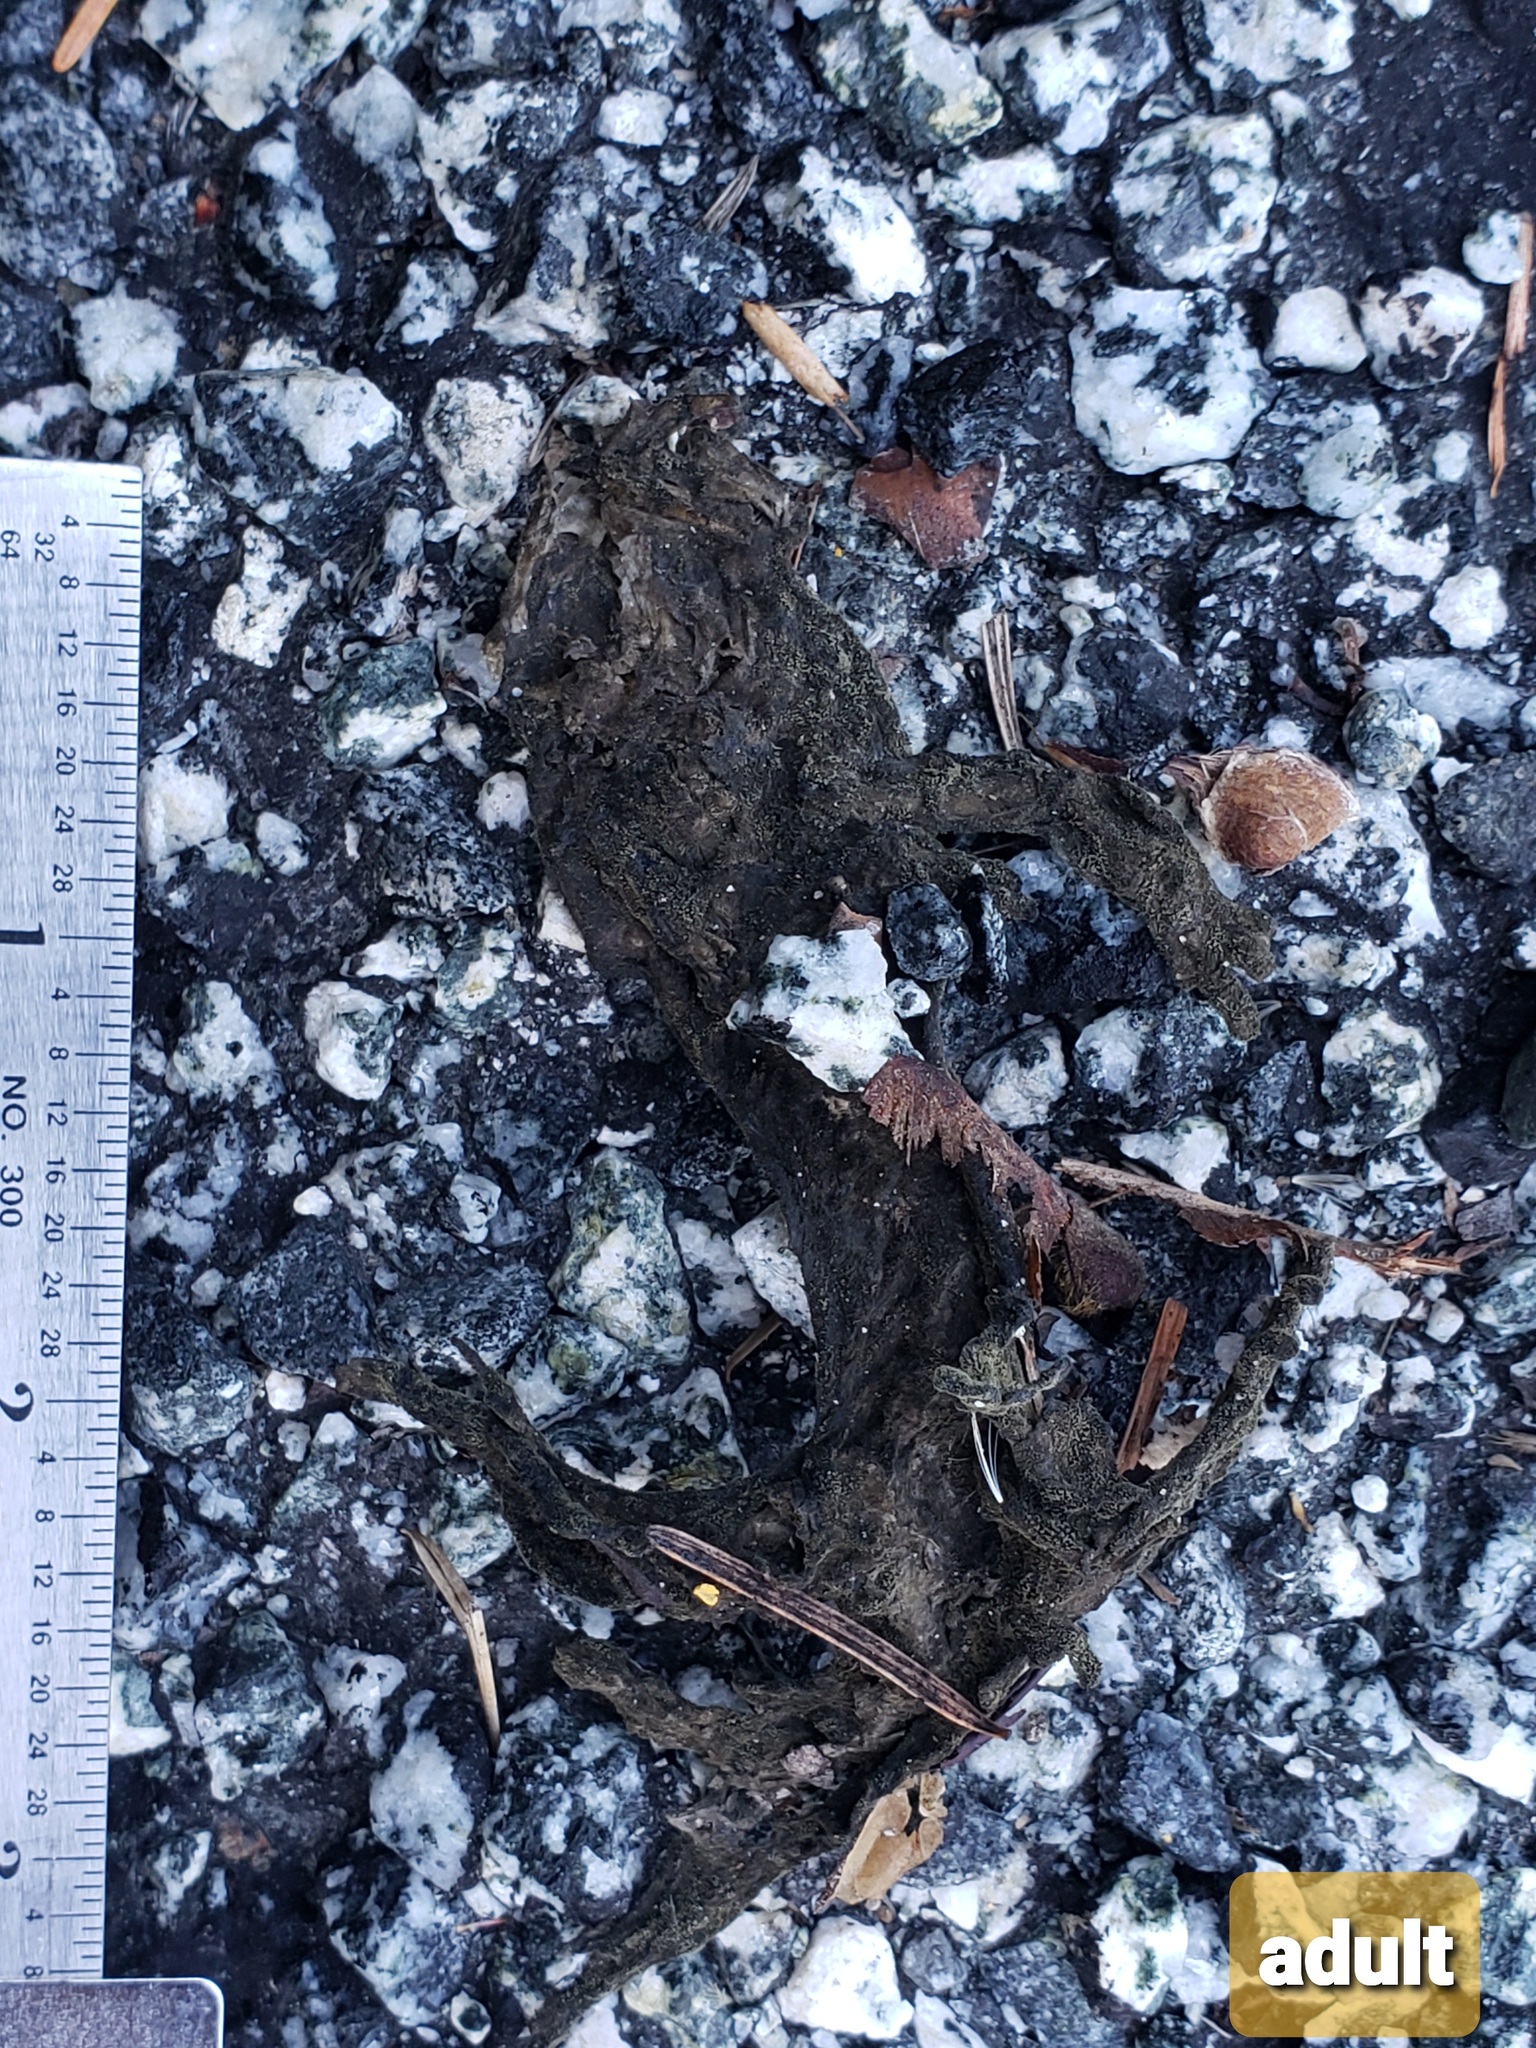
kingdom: Animalia
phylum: Chordata
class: Amphibia
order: Caudata
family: Salamandridae
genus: Taricha
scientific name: Taricha
